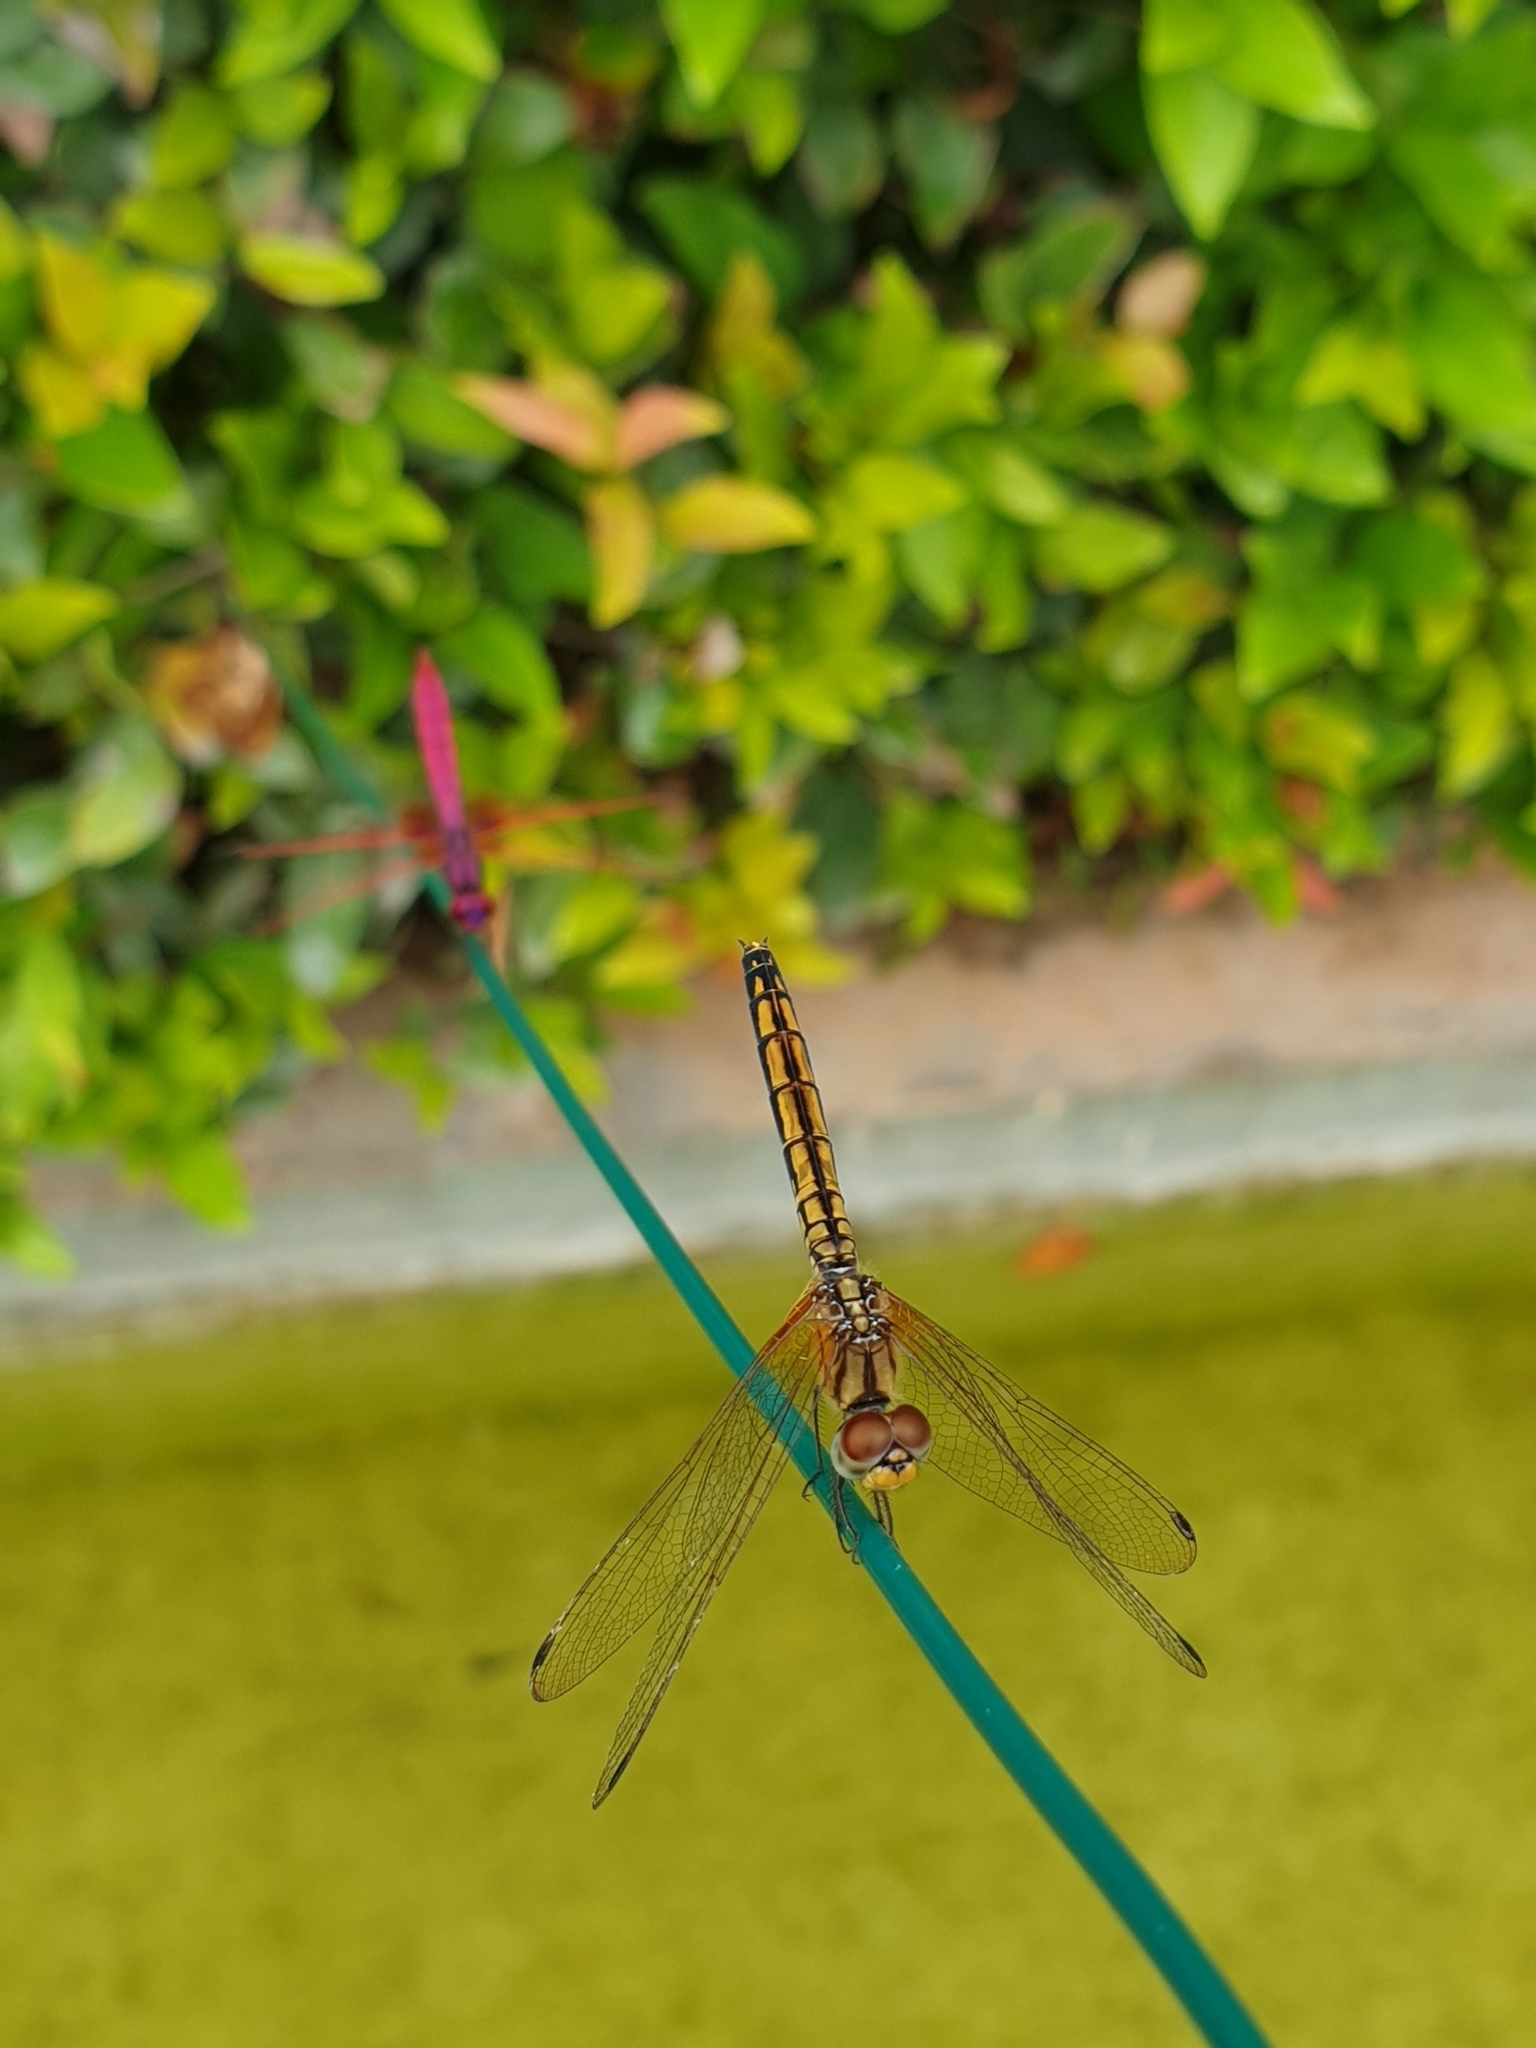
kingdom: Animalia
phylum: Arthropoda
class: Insecta
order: Odonata
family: Libellulidae
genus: Trithemis
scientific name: Trithemis aurora
